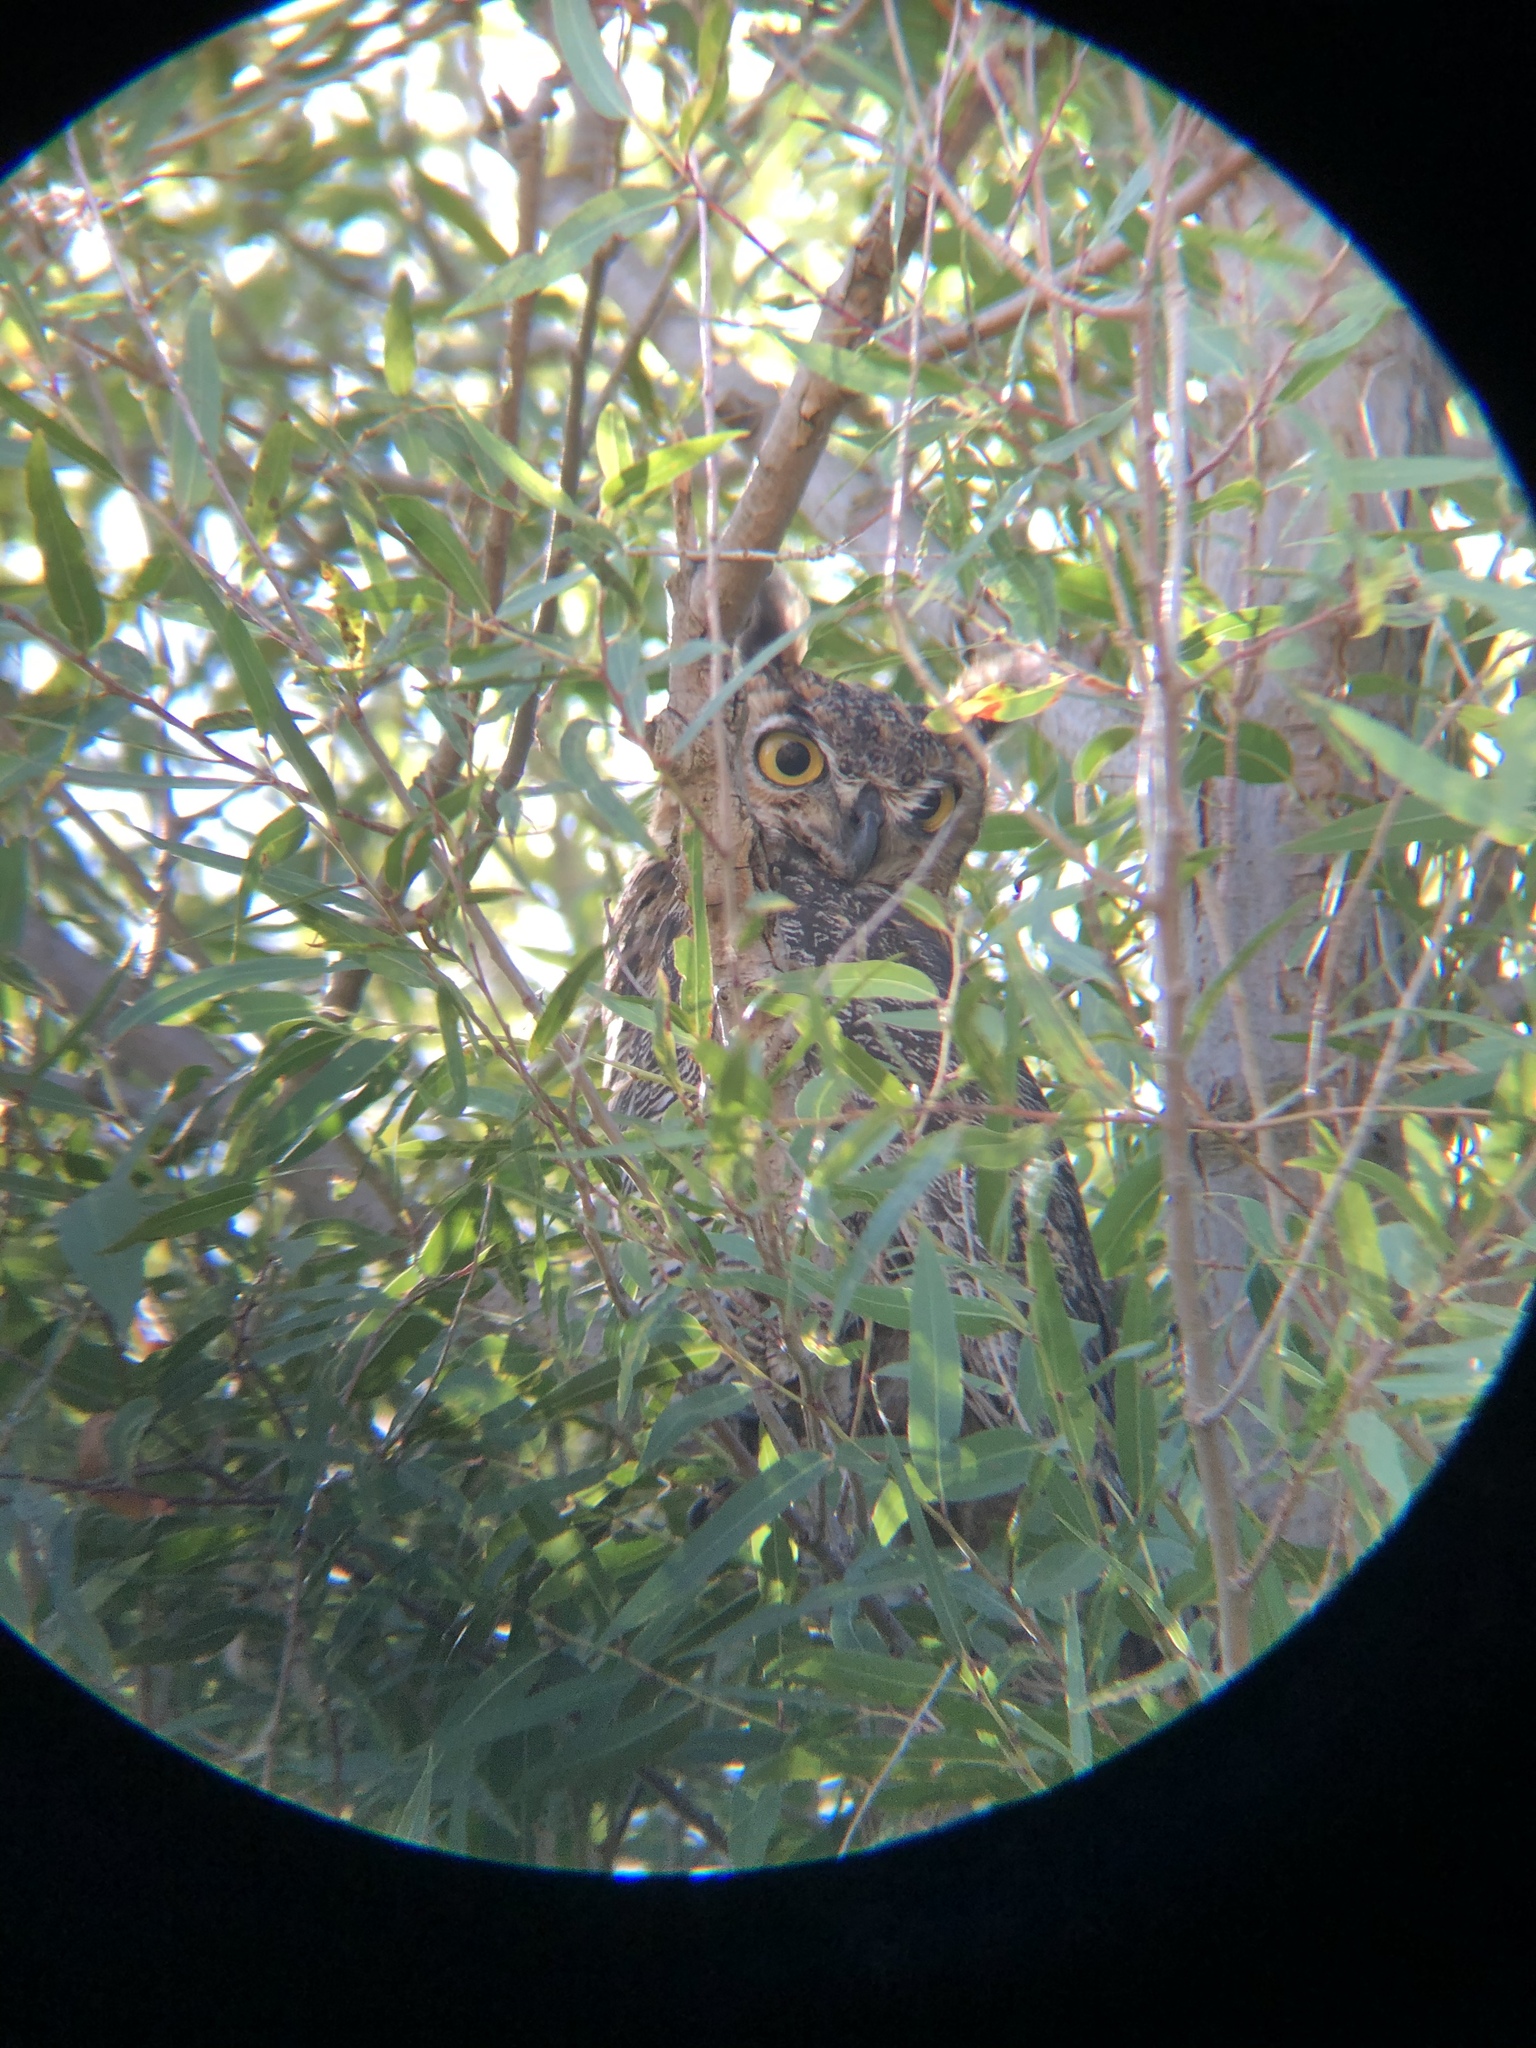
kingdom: Animalia
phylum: Chordata
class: Aves
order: Strigiformes
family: Strigidae
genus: Bubo
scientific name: Bubo virginianus
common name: Great horned owl
